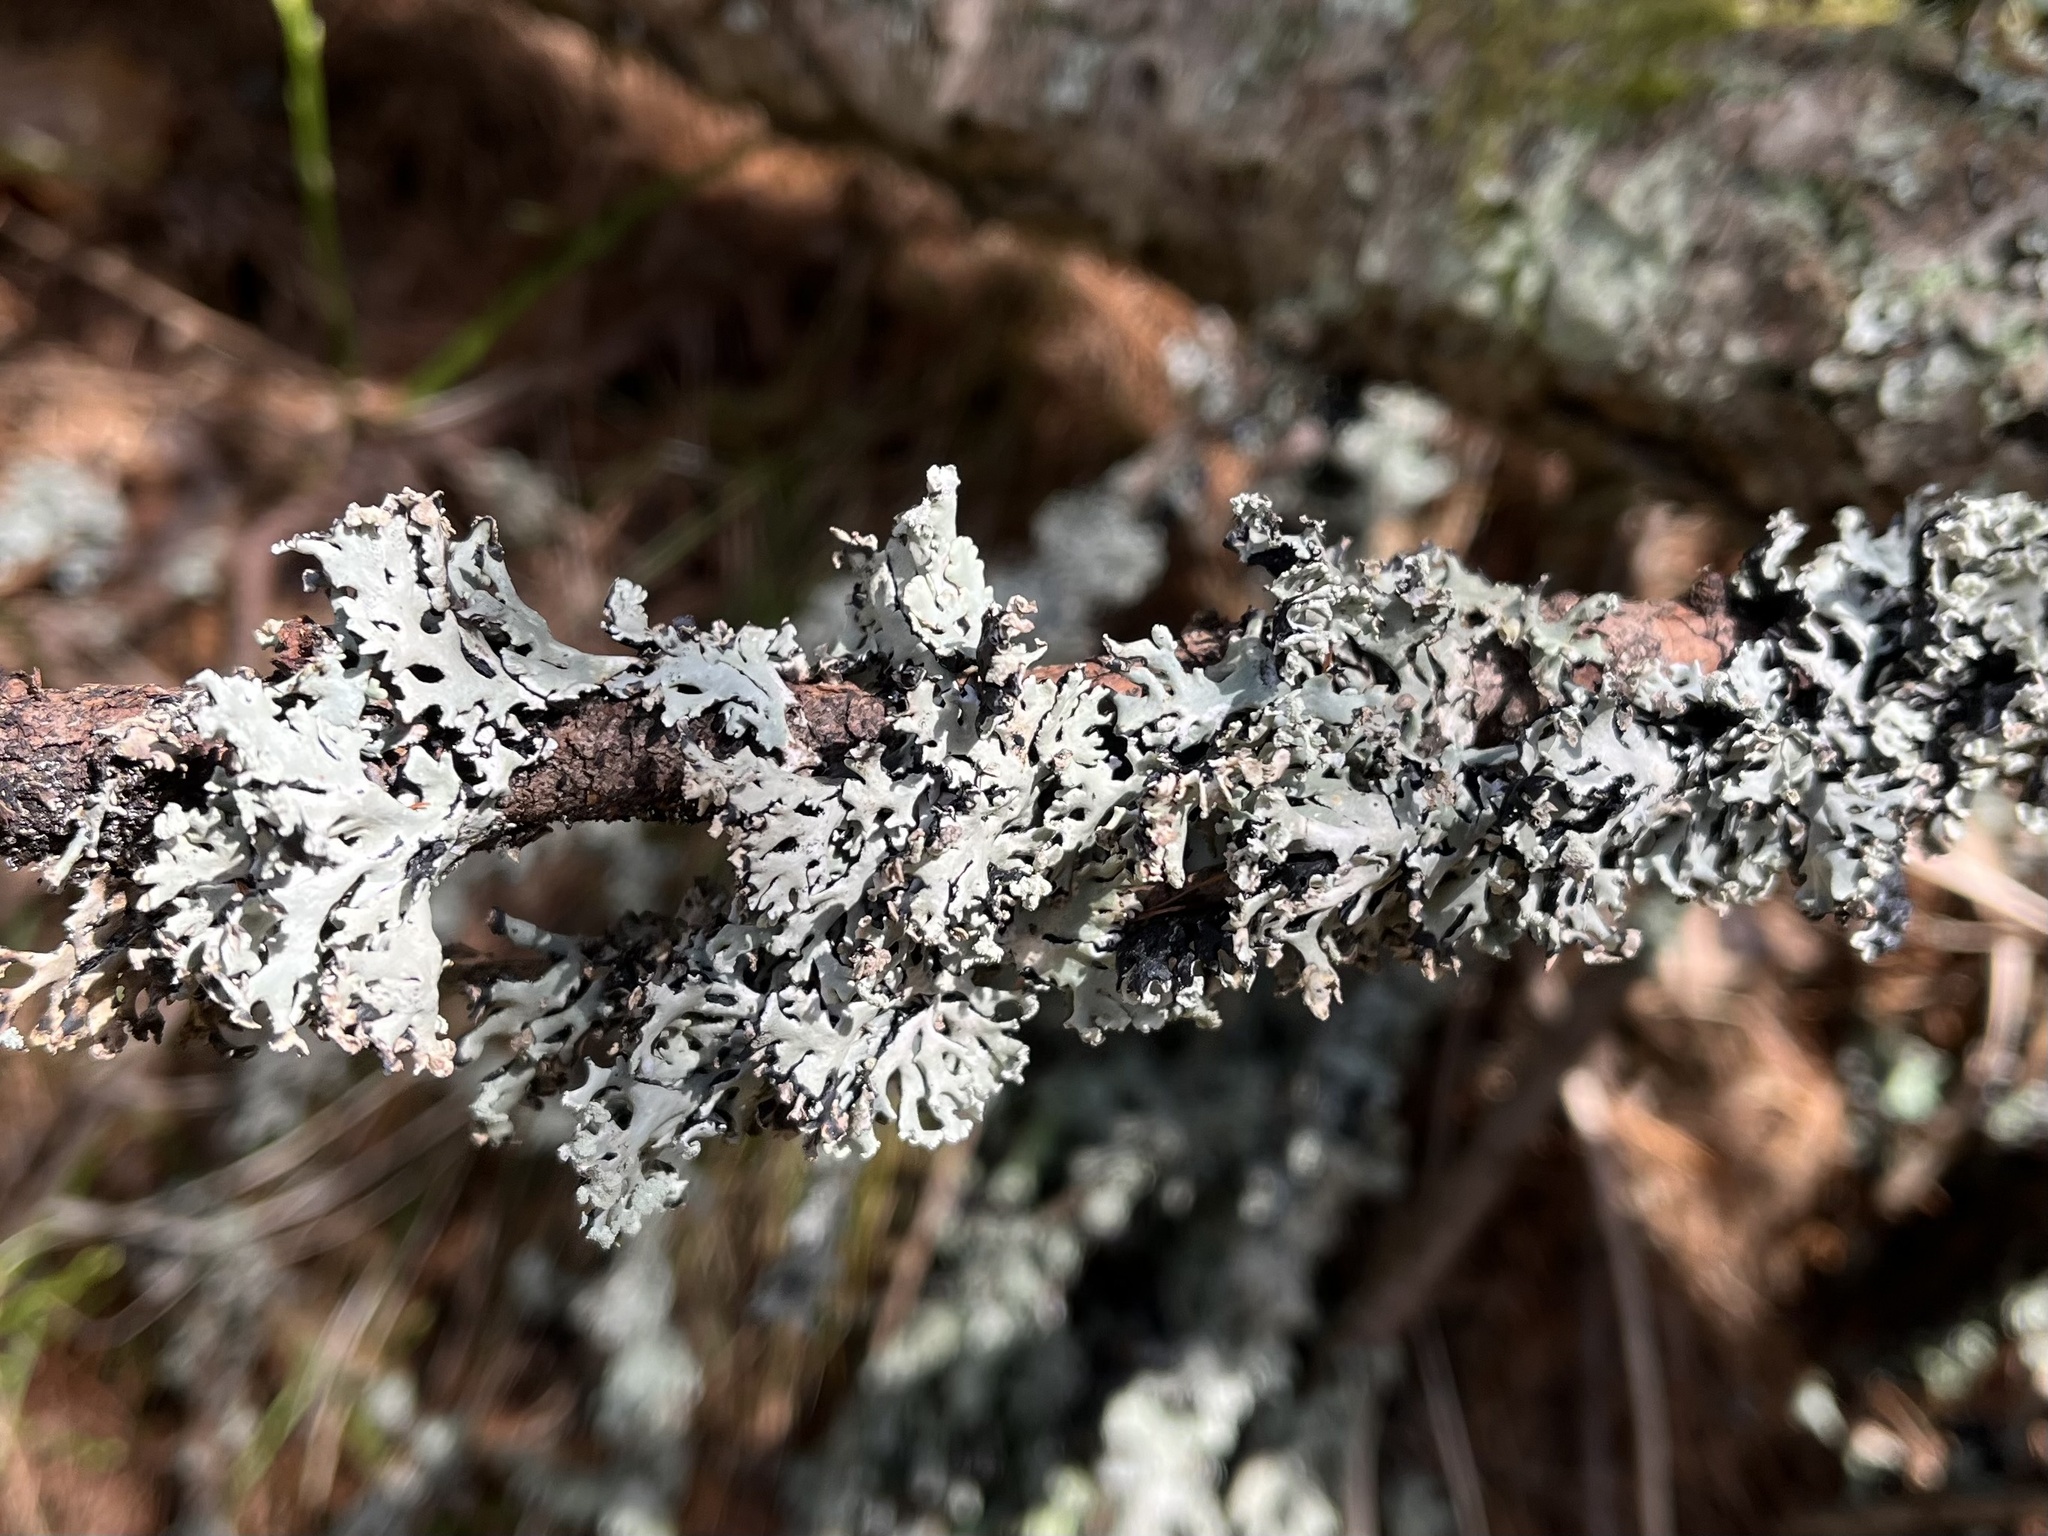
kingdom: Fungi
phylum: Ascomycota
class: Lecanoromycetes
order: Lecanorales
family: Parmeliaceae
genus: Hypogymnia
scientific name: Hypogymnia physodes
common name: Dark crottle
